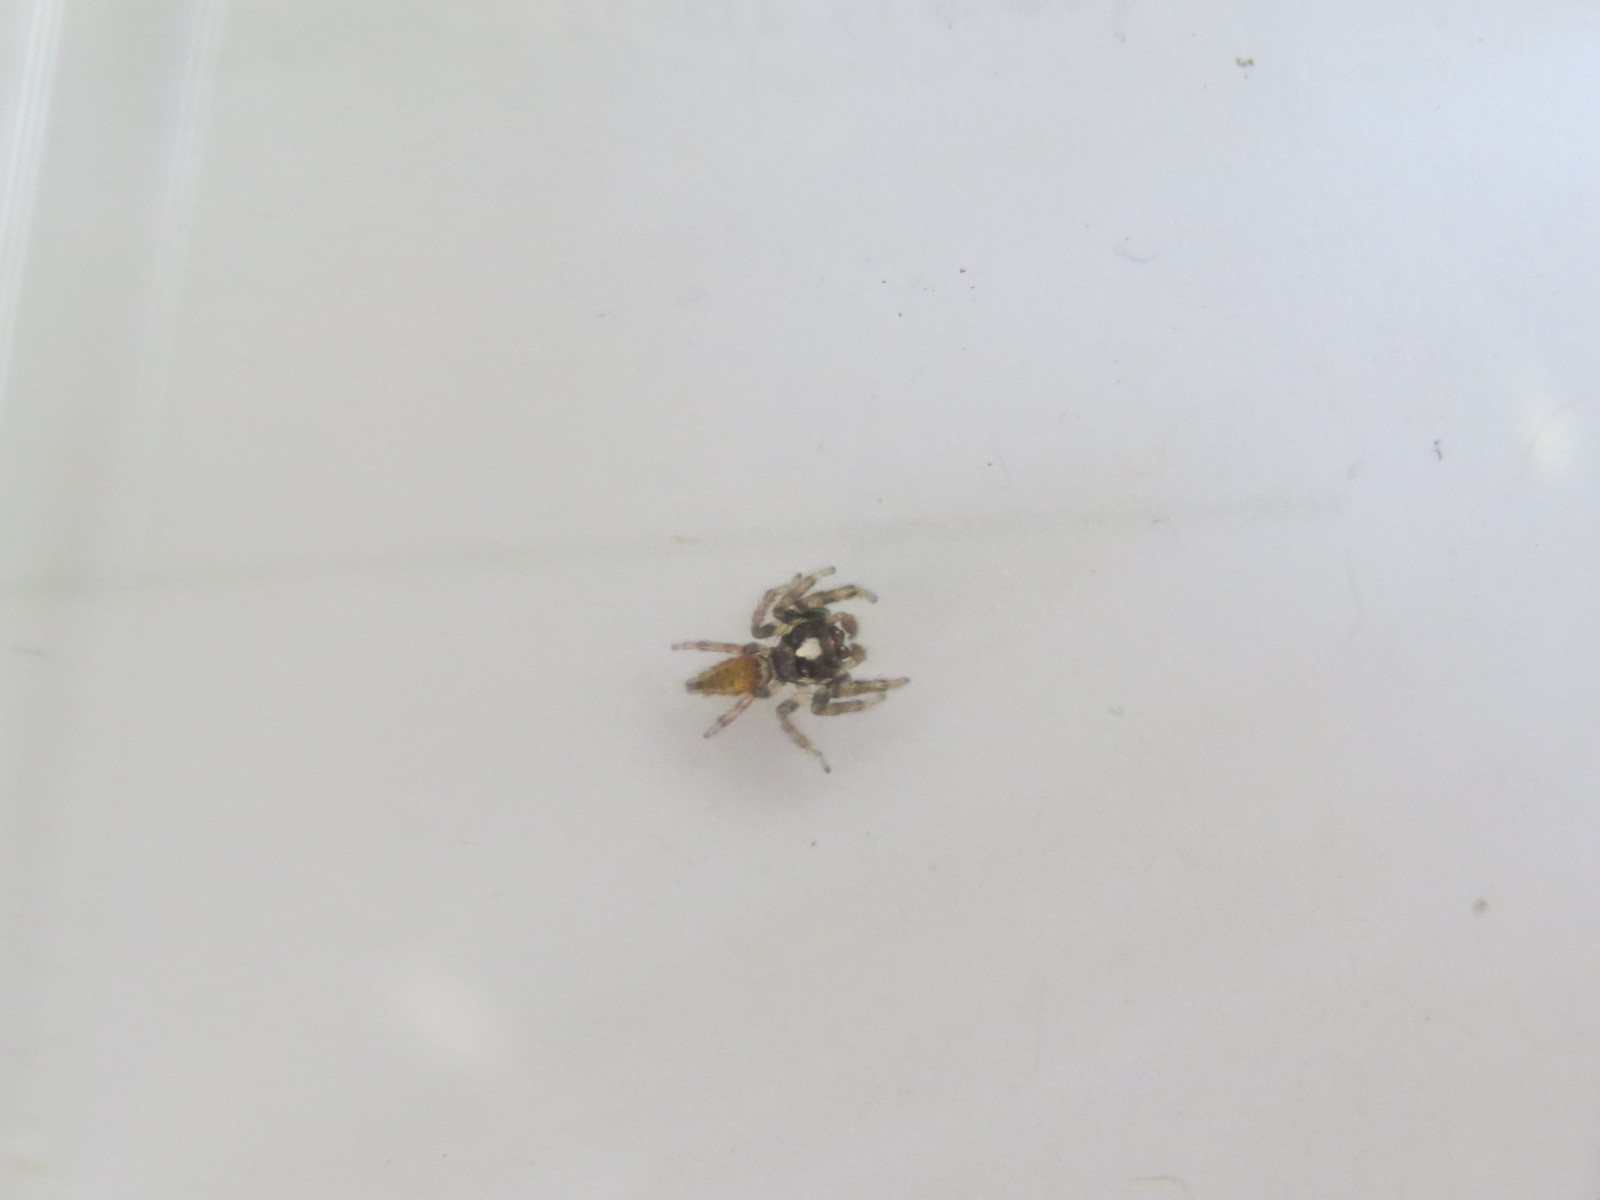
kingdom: Animalia
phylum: Arthropoda
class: Arachnida
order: Araneae
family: Salticidae
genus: Colonus
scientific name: Colonus hesperus
